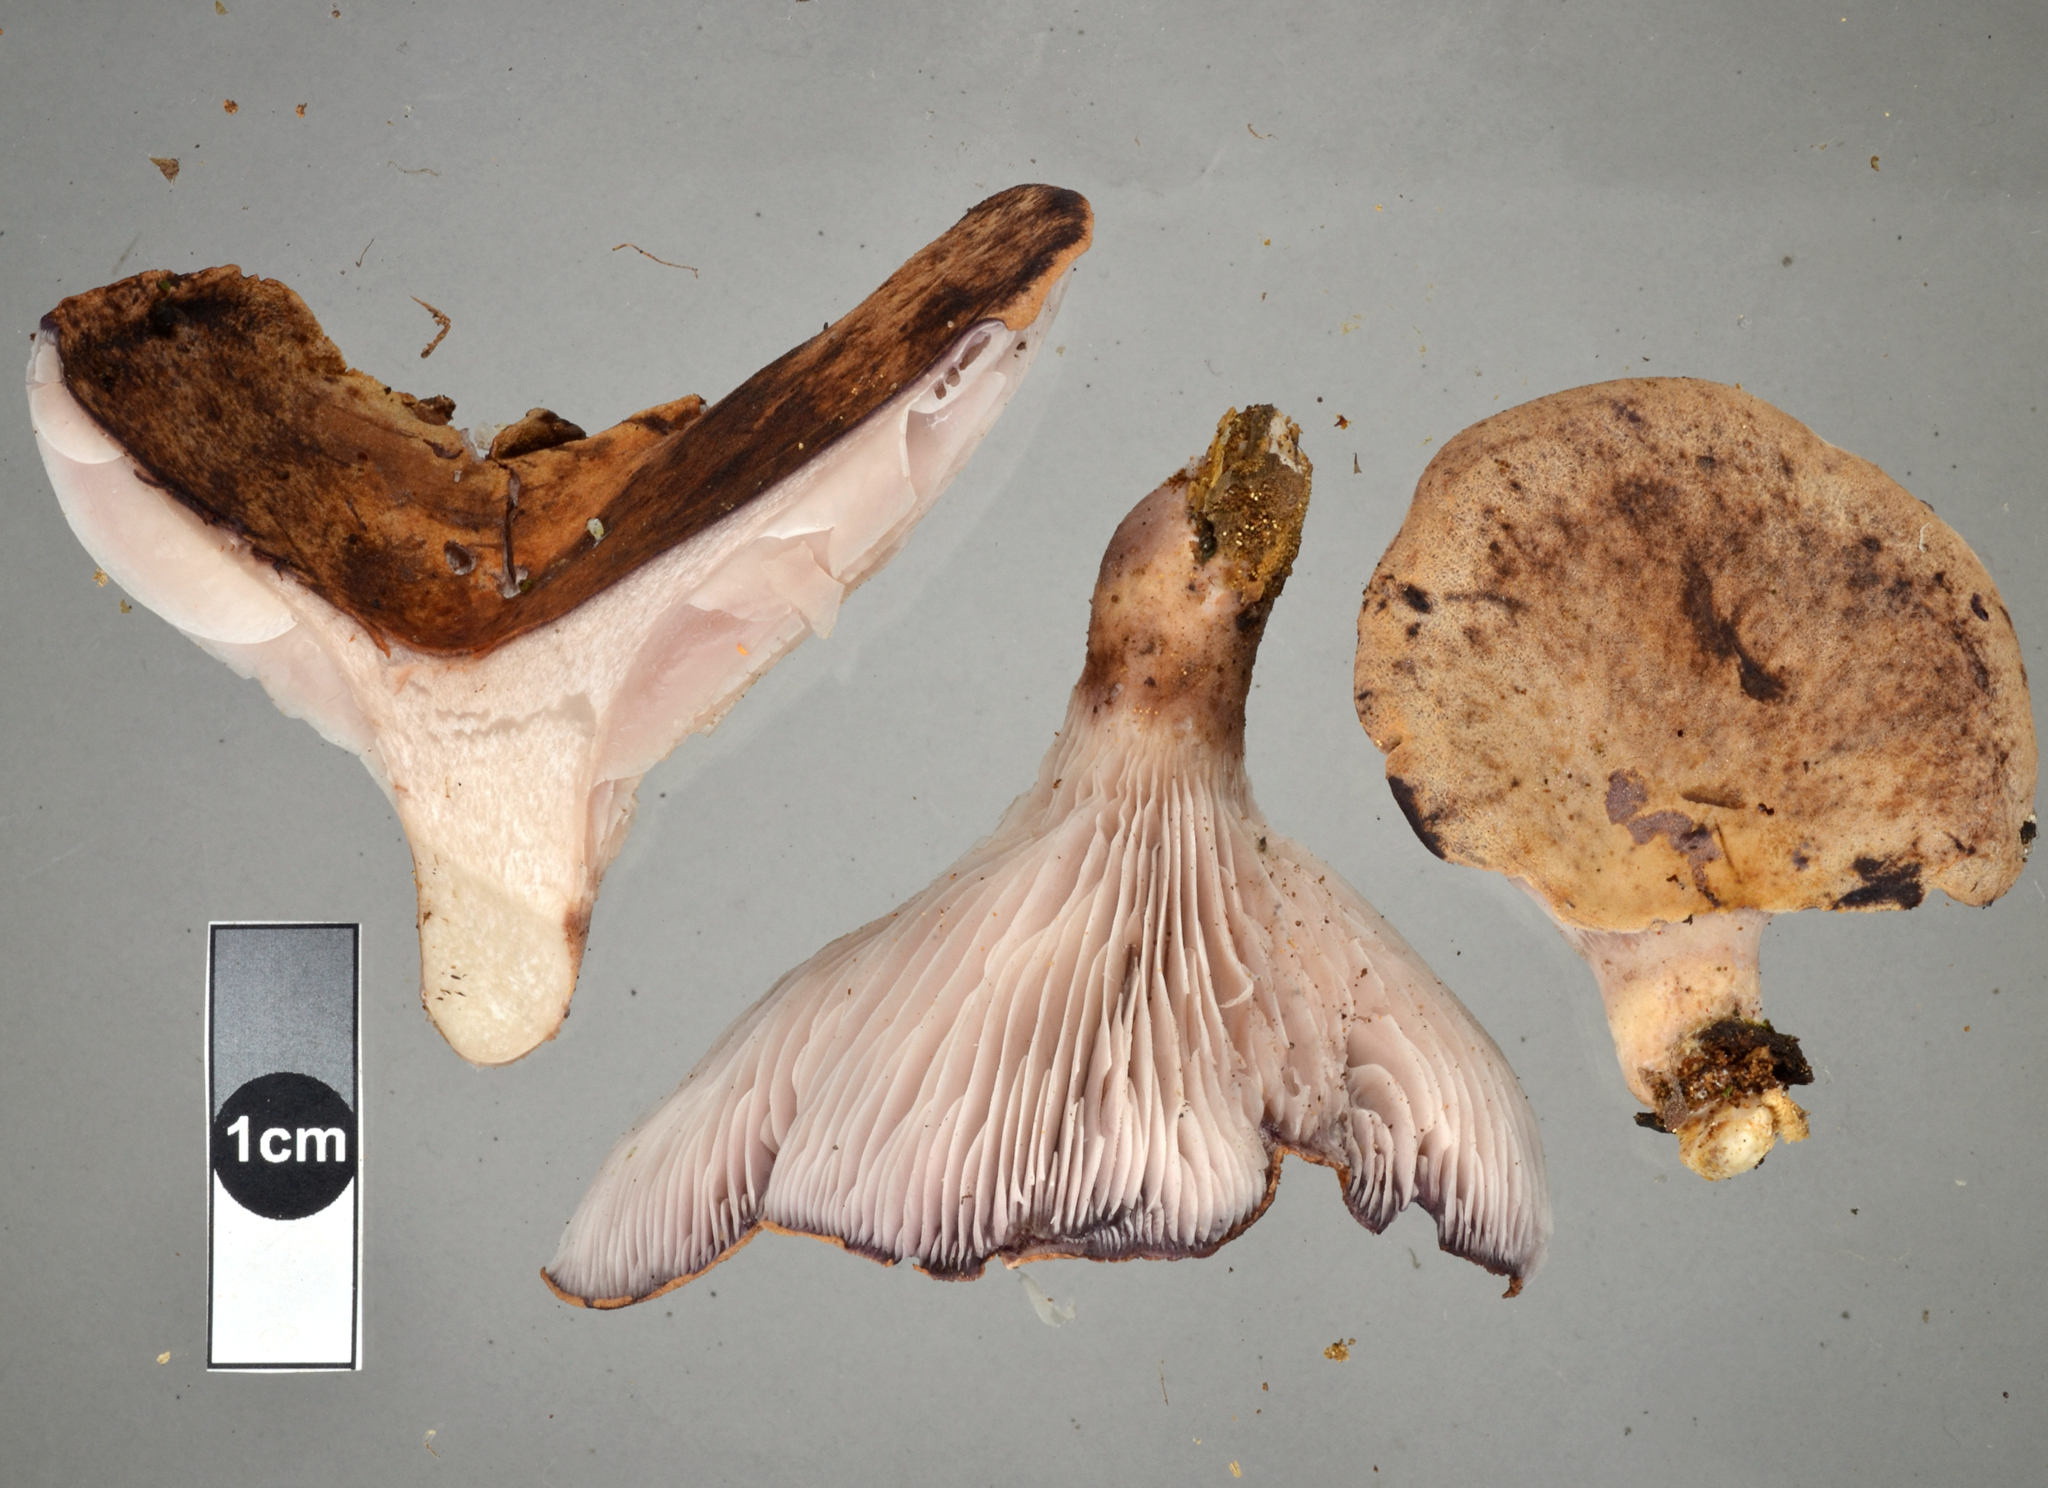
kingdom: Fungi
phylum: Basidiomycota
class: Agaricomycetes
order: Polyporales
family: Panaceae
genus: Panus
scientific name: Panus purpuratus
